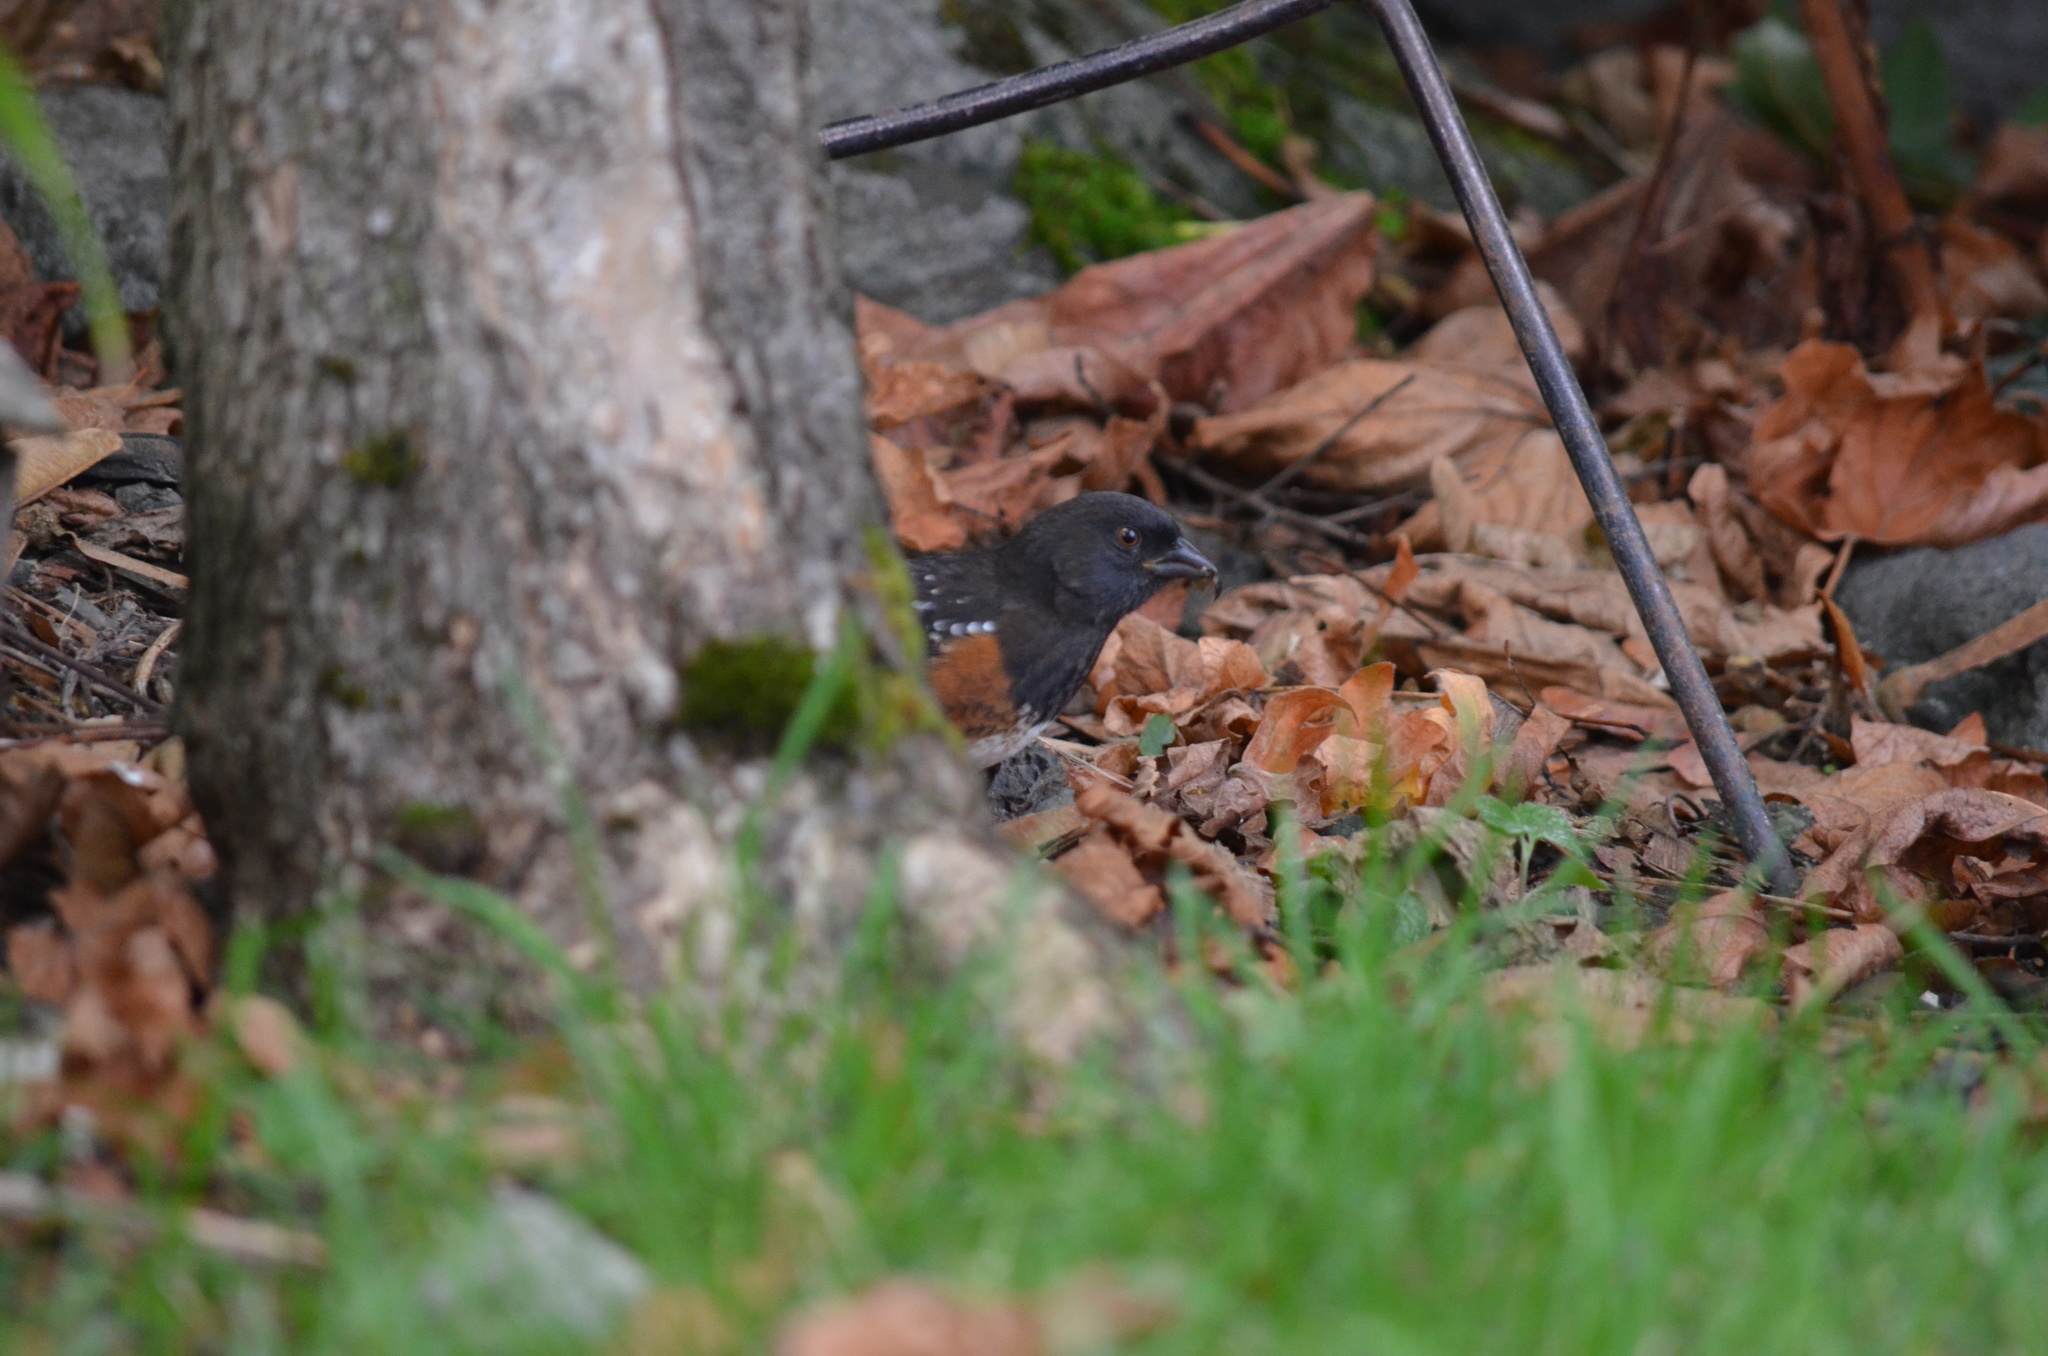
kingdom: Animalia
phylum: Chordata
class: Aves
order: Passeriformes
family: Passerellidae
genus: Pipilo
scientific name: Pipilo maculatus
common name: Spotted towhee
